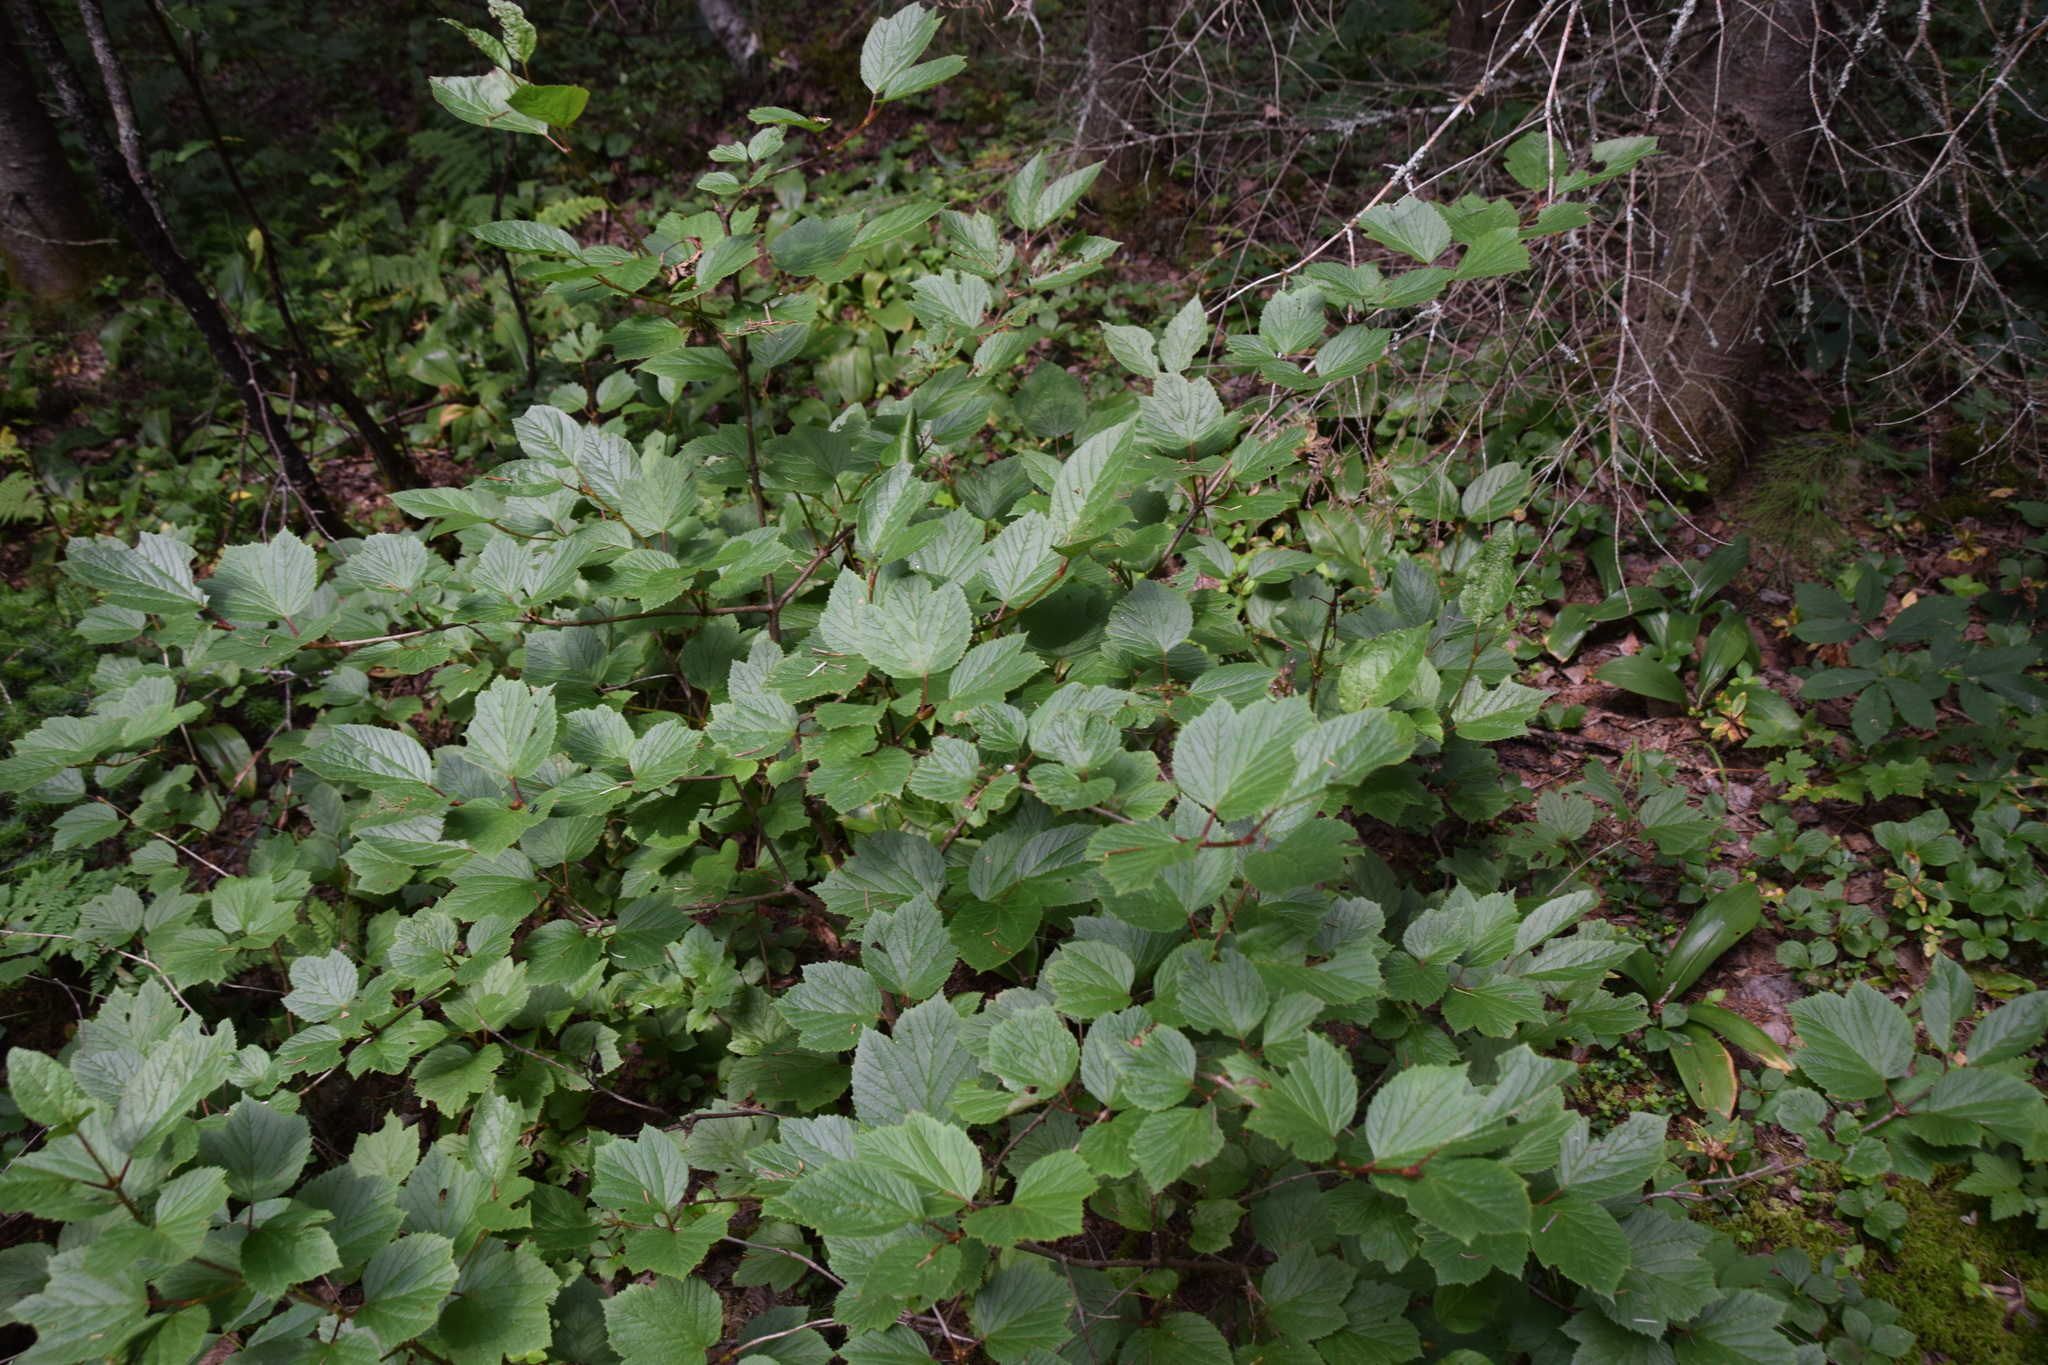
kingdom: Plantae
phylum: Tracheophyta
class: Magnoliopsida
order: Dipsacales
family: Viburnaceae
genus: Viburnum
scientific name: Viburnum edule
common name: Mooseberry
